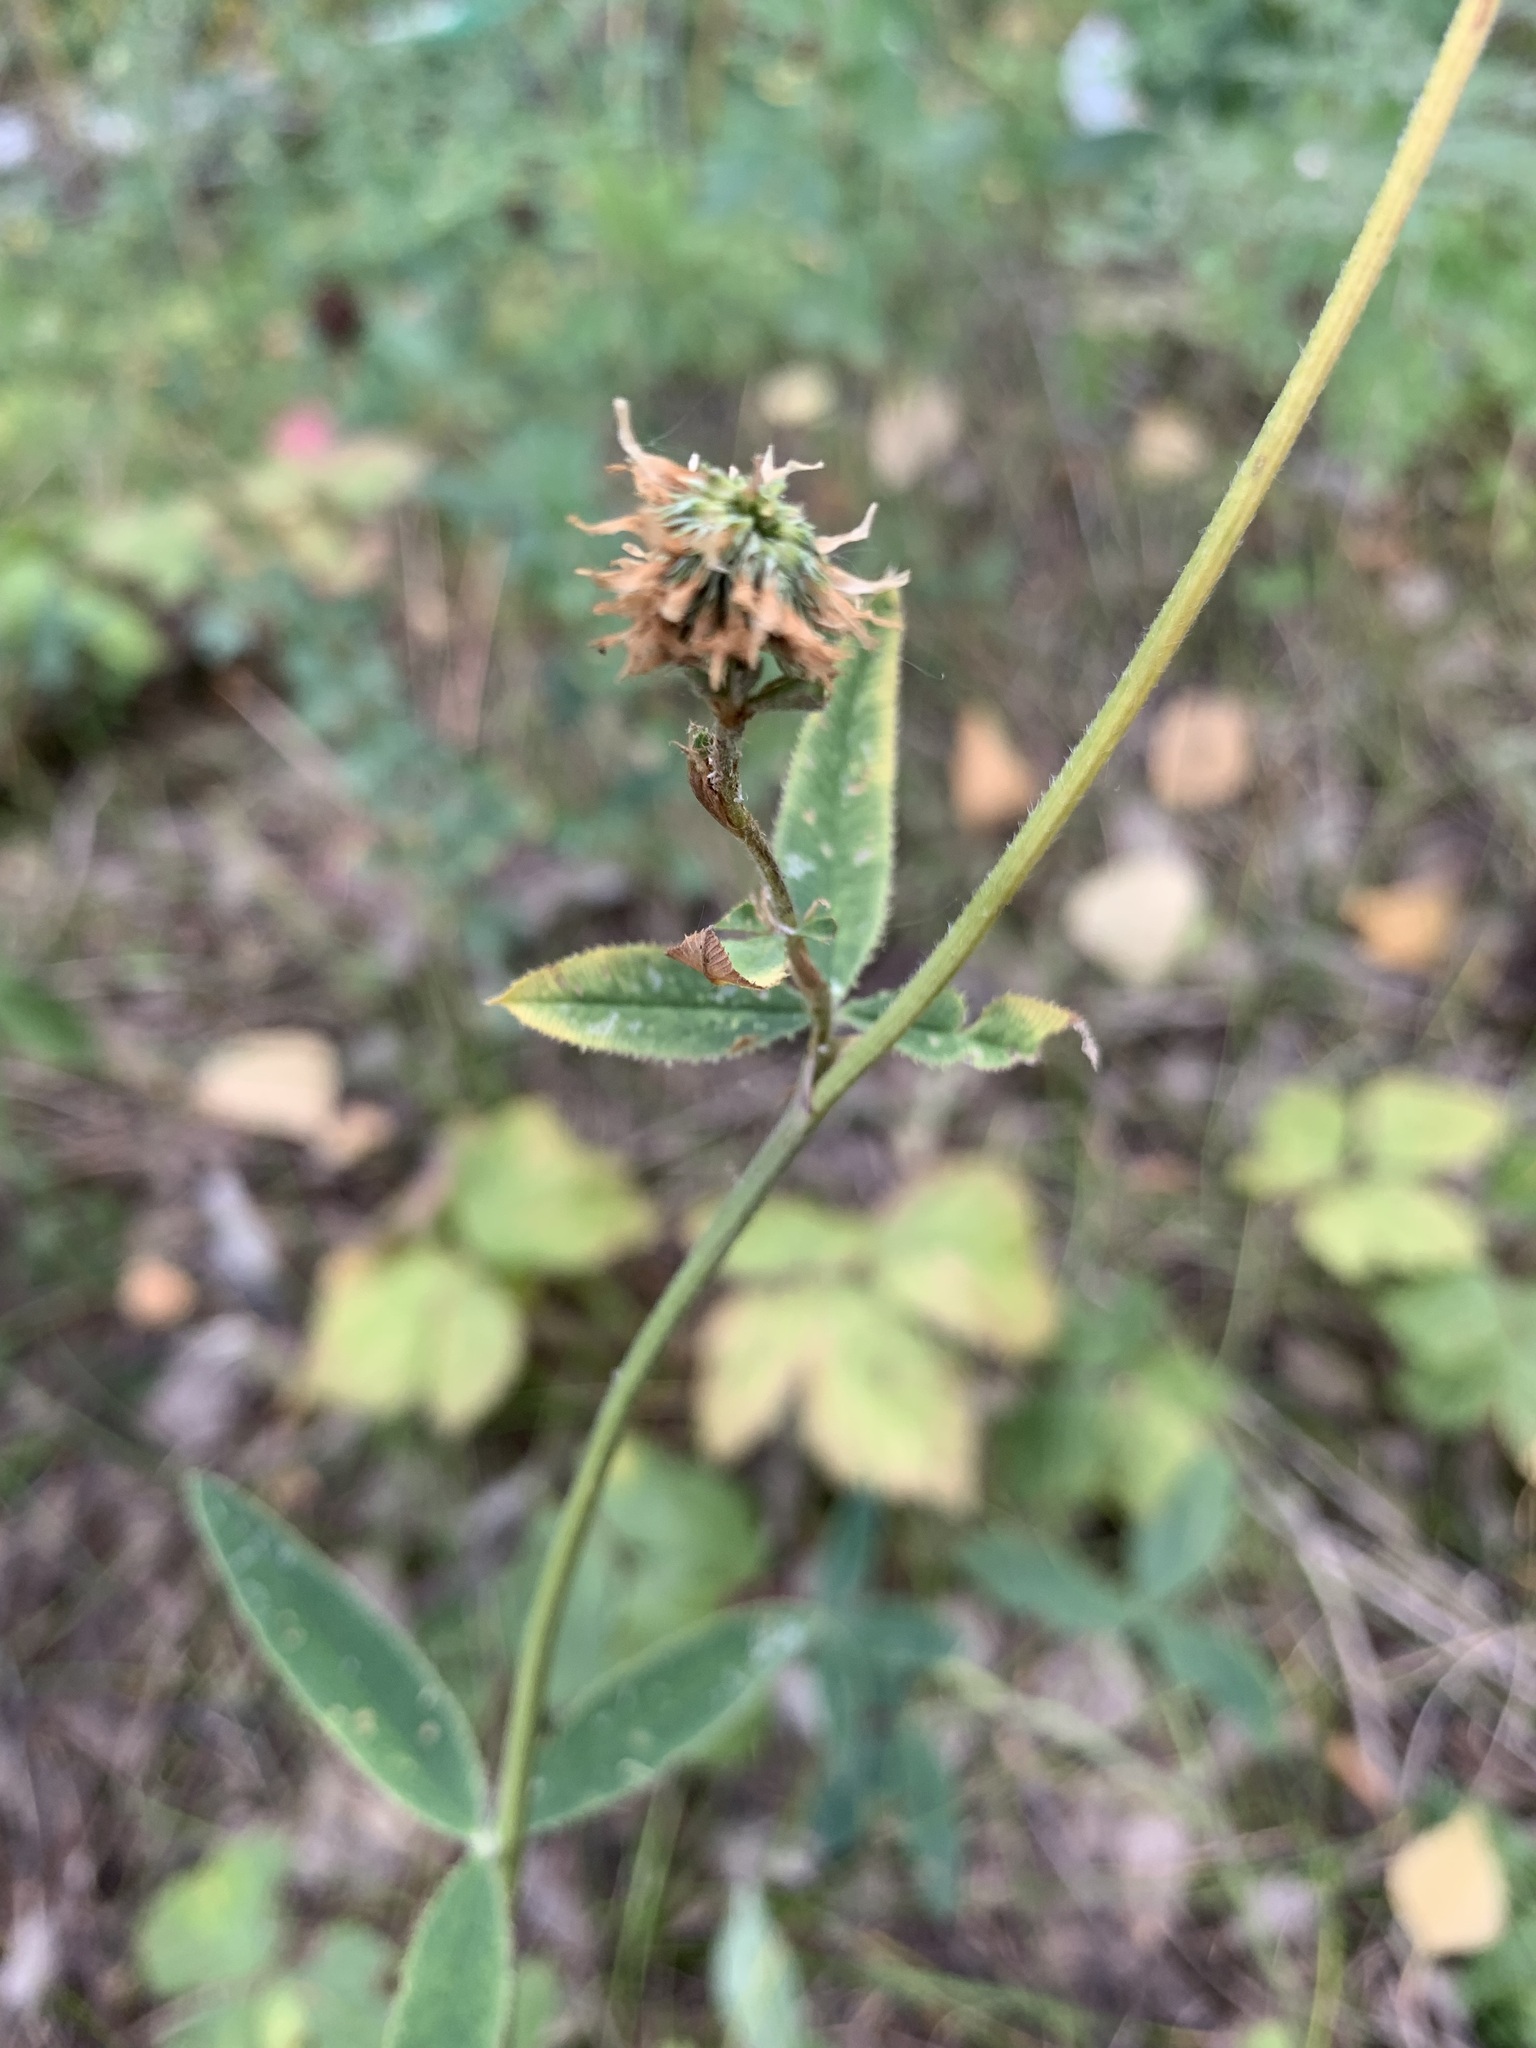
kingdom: Plantae
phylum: Tracheophyta
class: Magnoliopsida
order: Fabales
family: Fabaceae
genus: Trifolium
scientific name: Trifolium montanum
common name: Mountain clover
